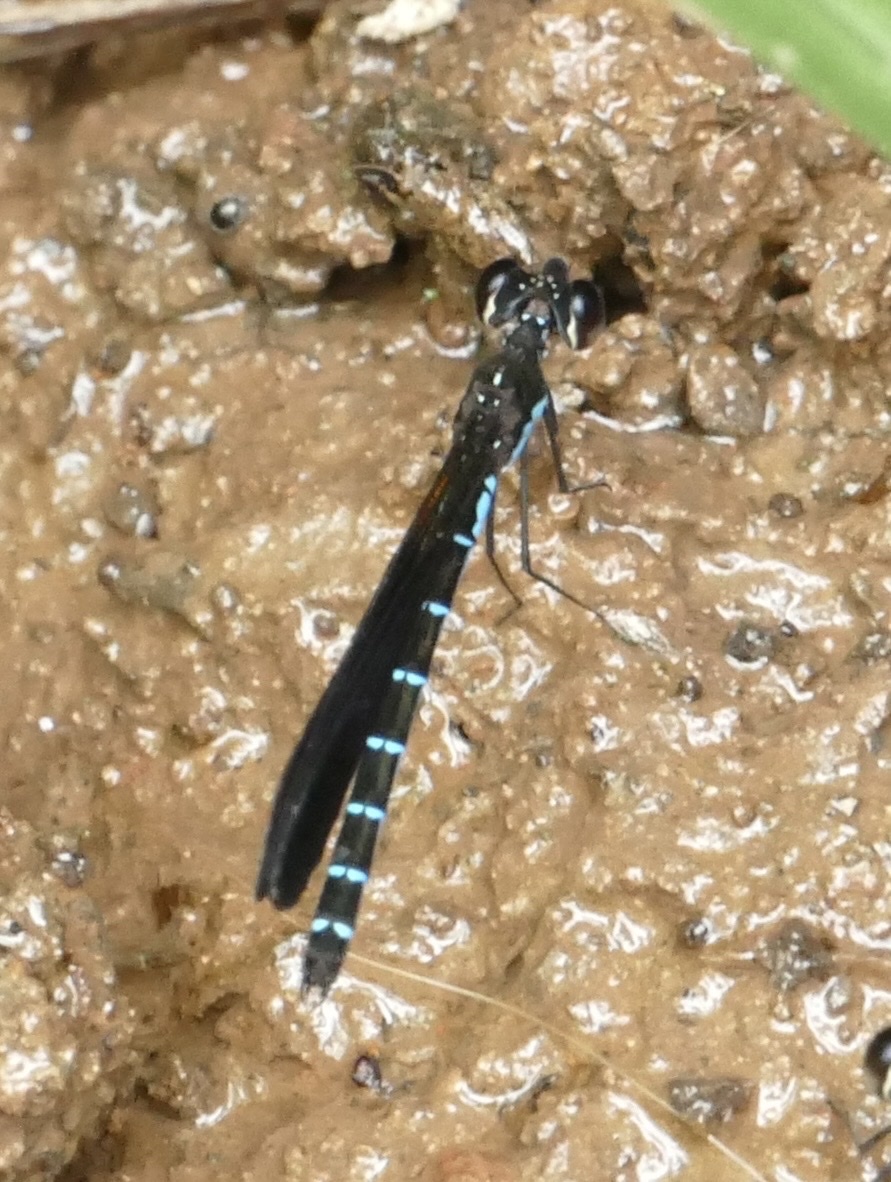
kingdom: Animalia
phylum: Arthropoda
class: Insecta
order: Odonata
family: Chlorocyphidae
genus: Rhinocypha
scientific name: Rhinocypha tincta
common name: Papuan jewel
